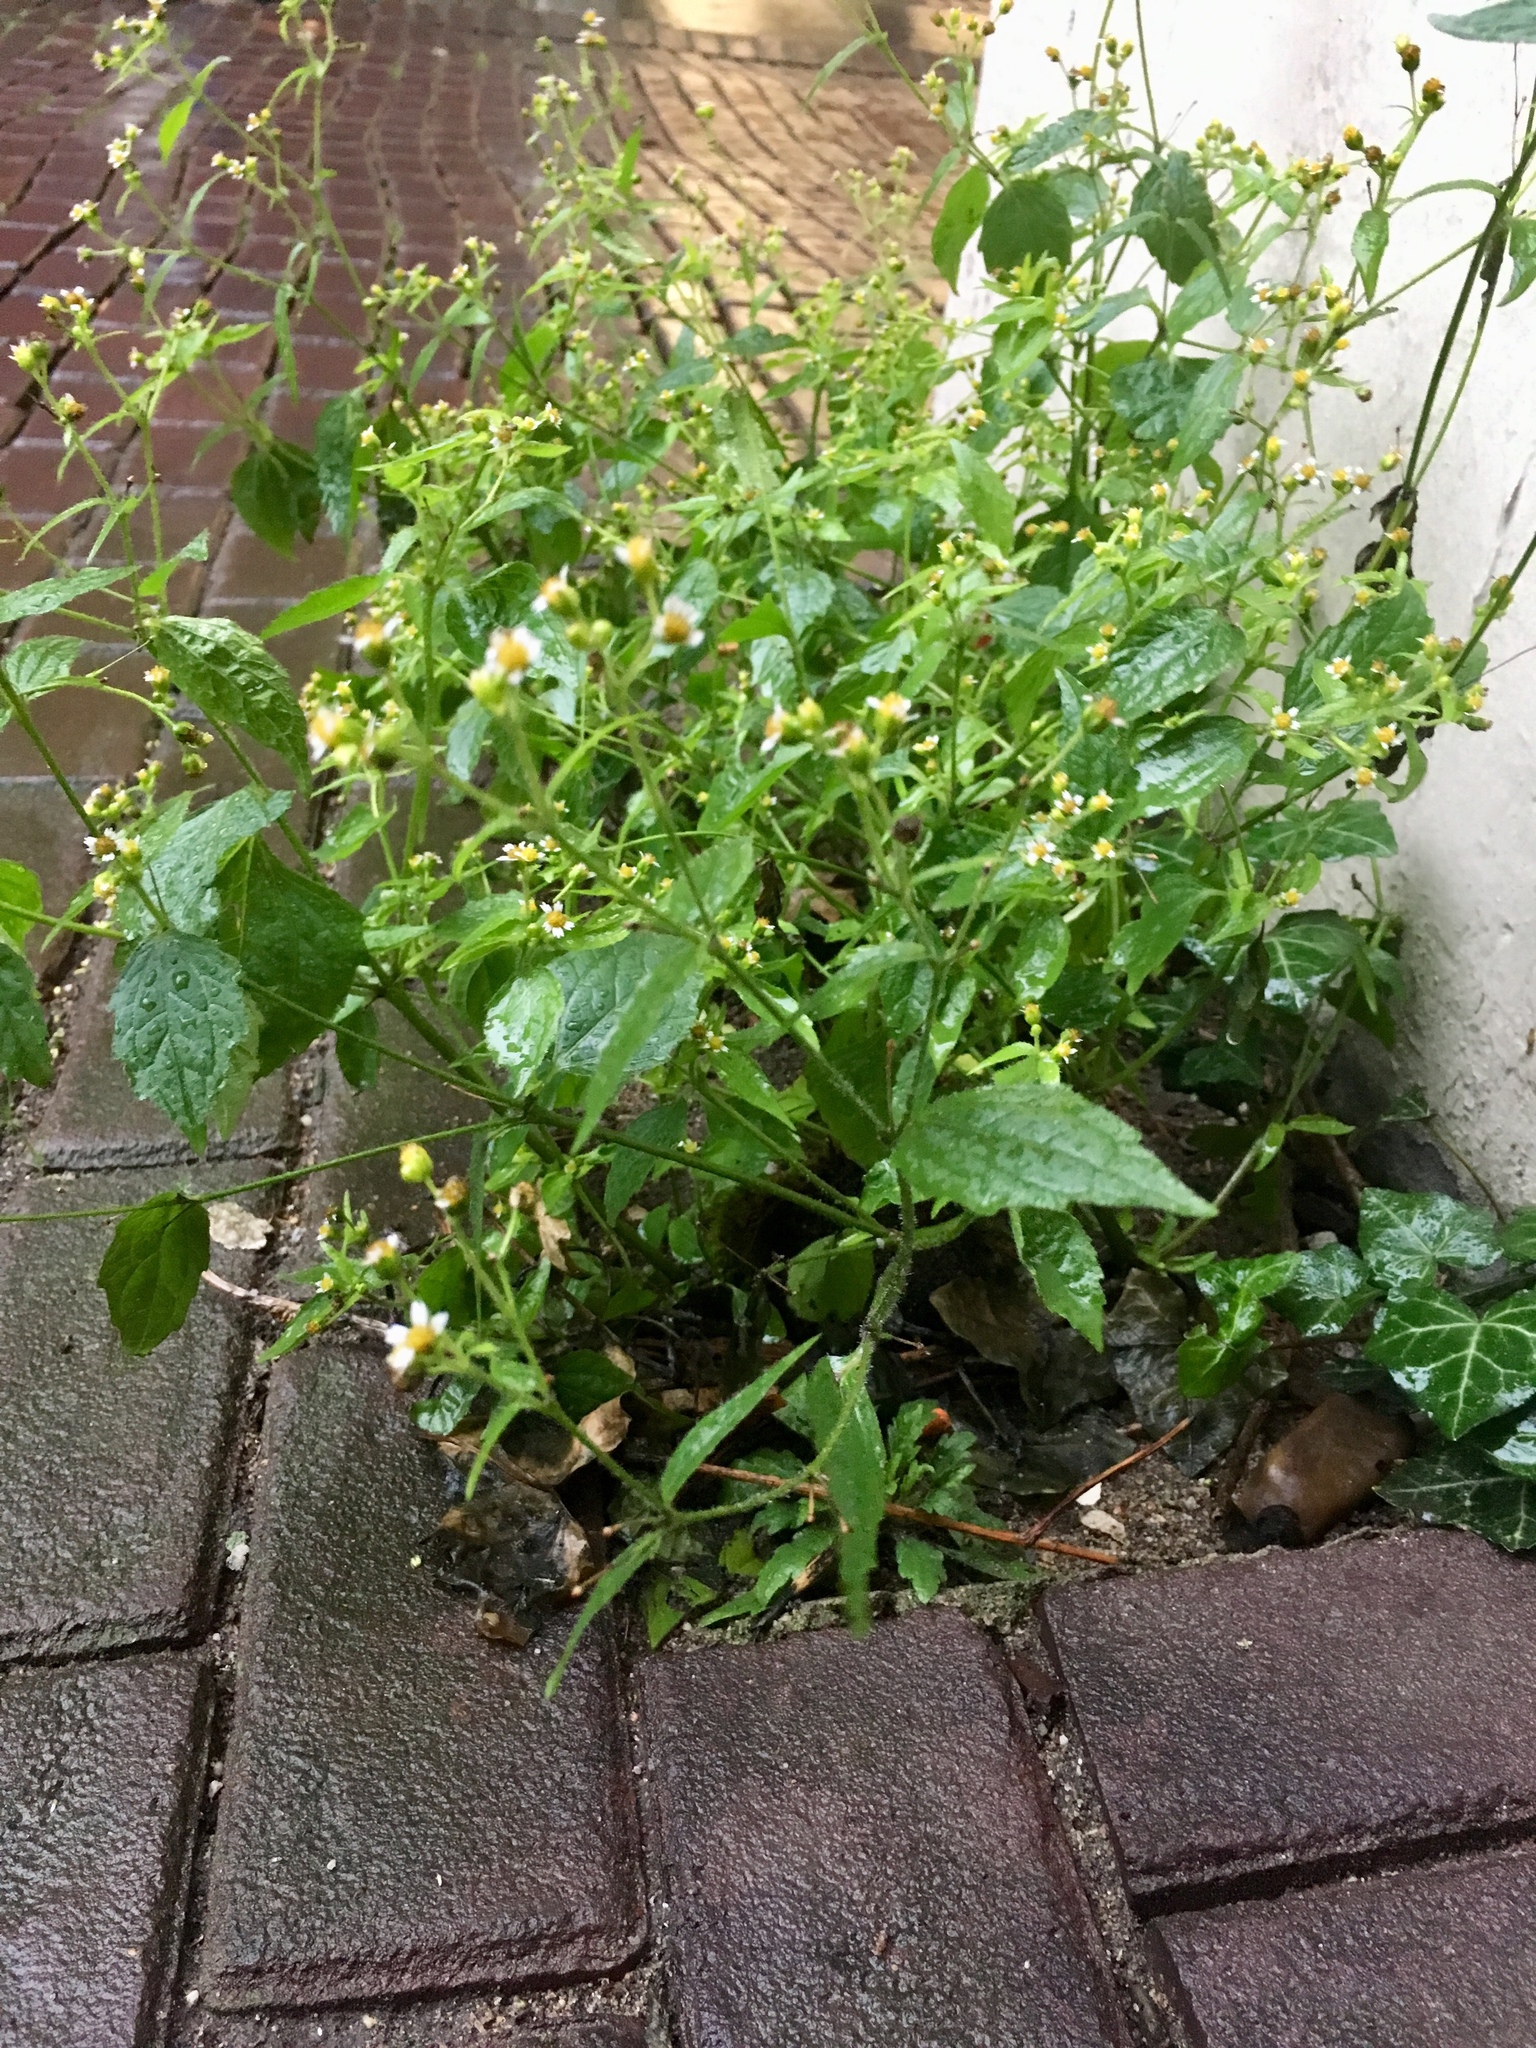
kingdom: Plantae
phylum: Tracheophyta
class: Magnoliopsida
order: Asterales
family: Asteraceae
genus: Galinsoga
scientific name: Galinsoga quadriradiata
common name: Shaggy soldier
